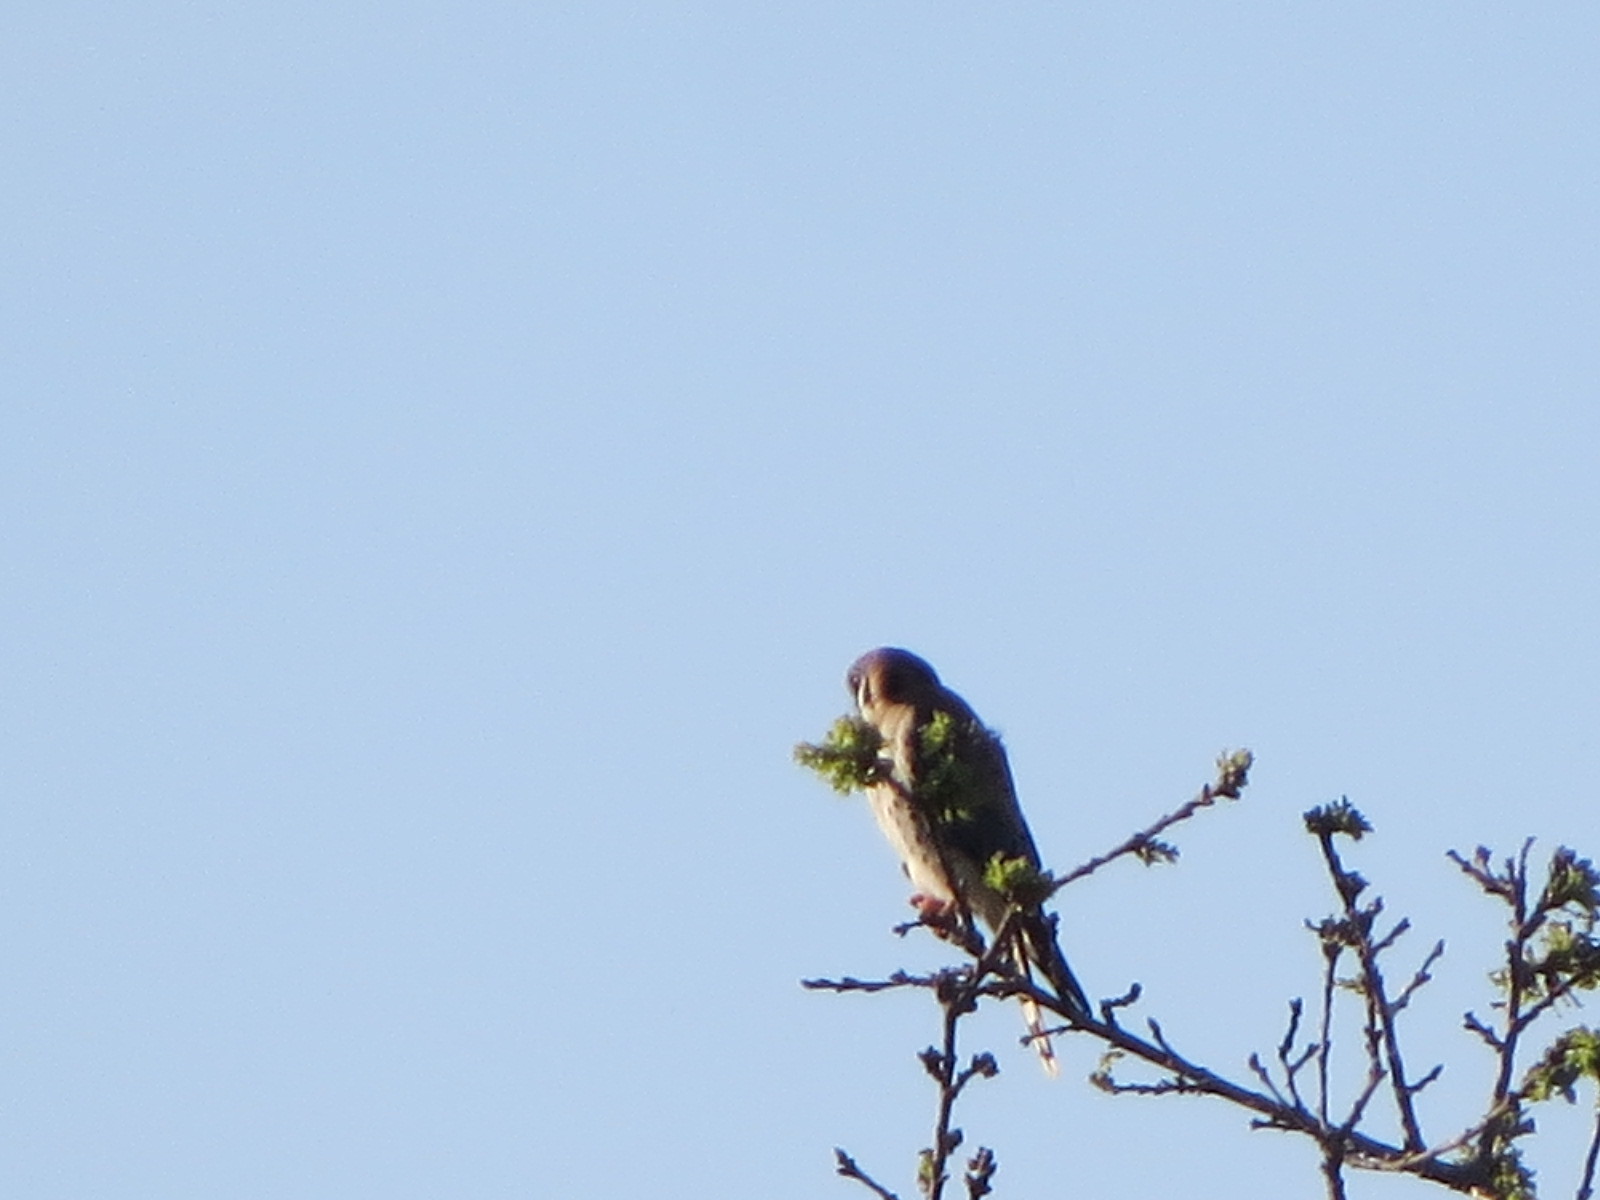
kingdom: Animalia
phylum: Chordata
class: Aves
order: Falconiformes
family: Falconidae
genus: Falco
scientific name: Falco sparverius
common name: American kestrel
